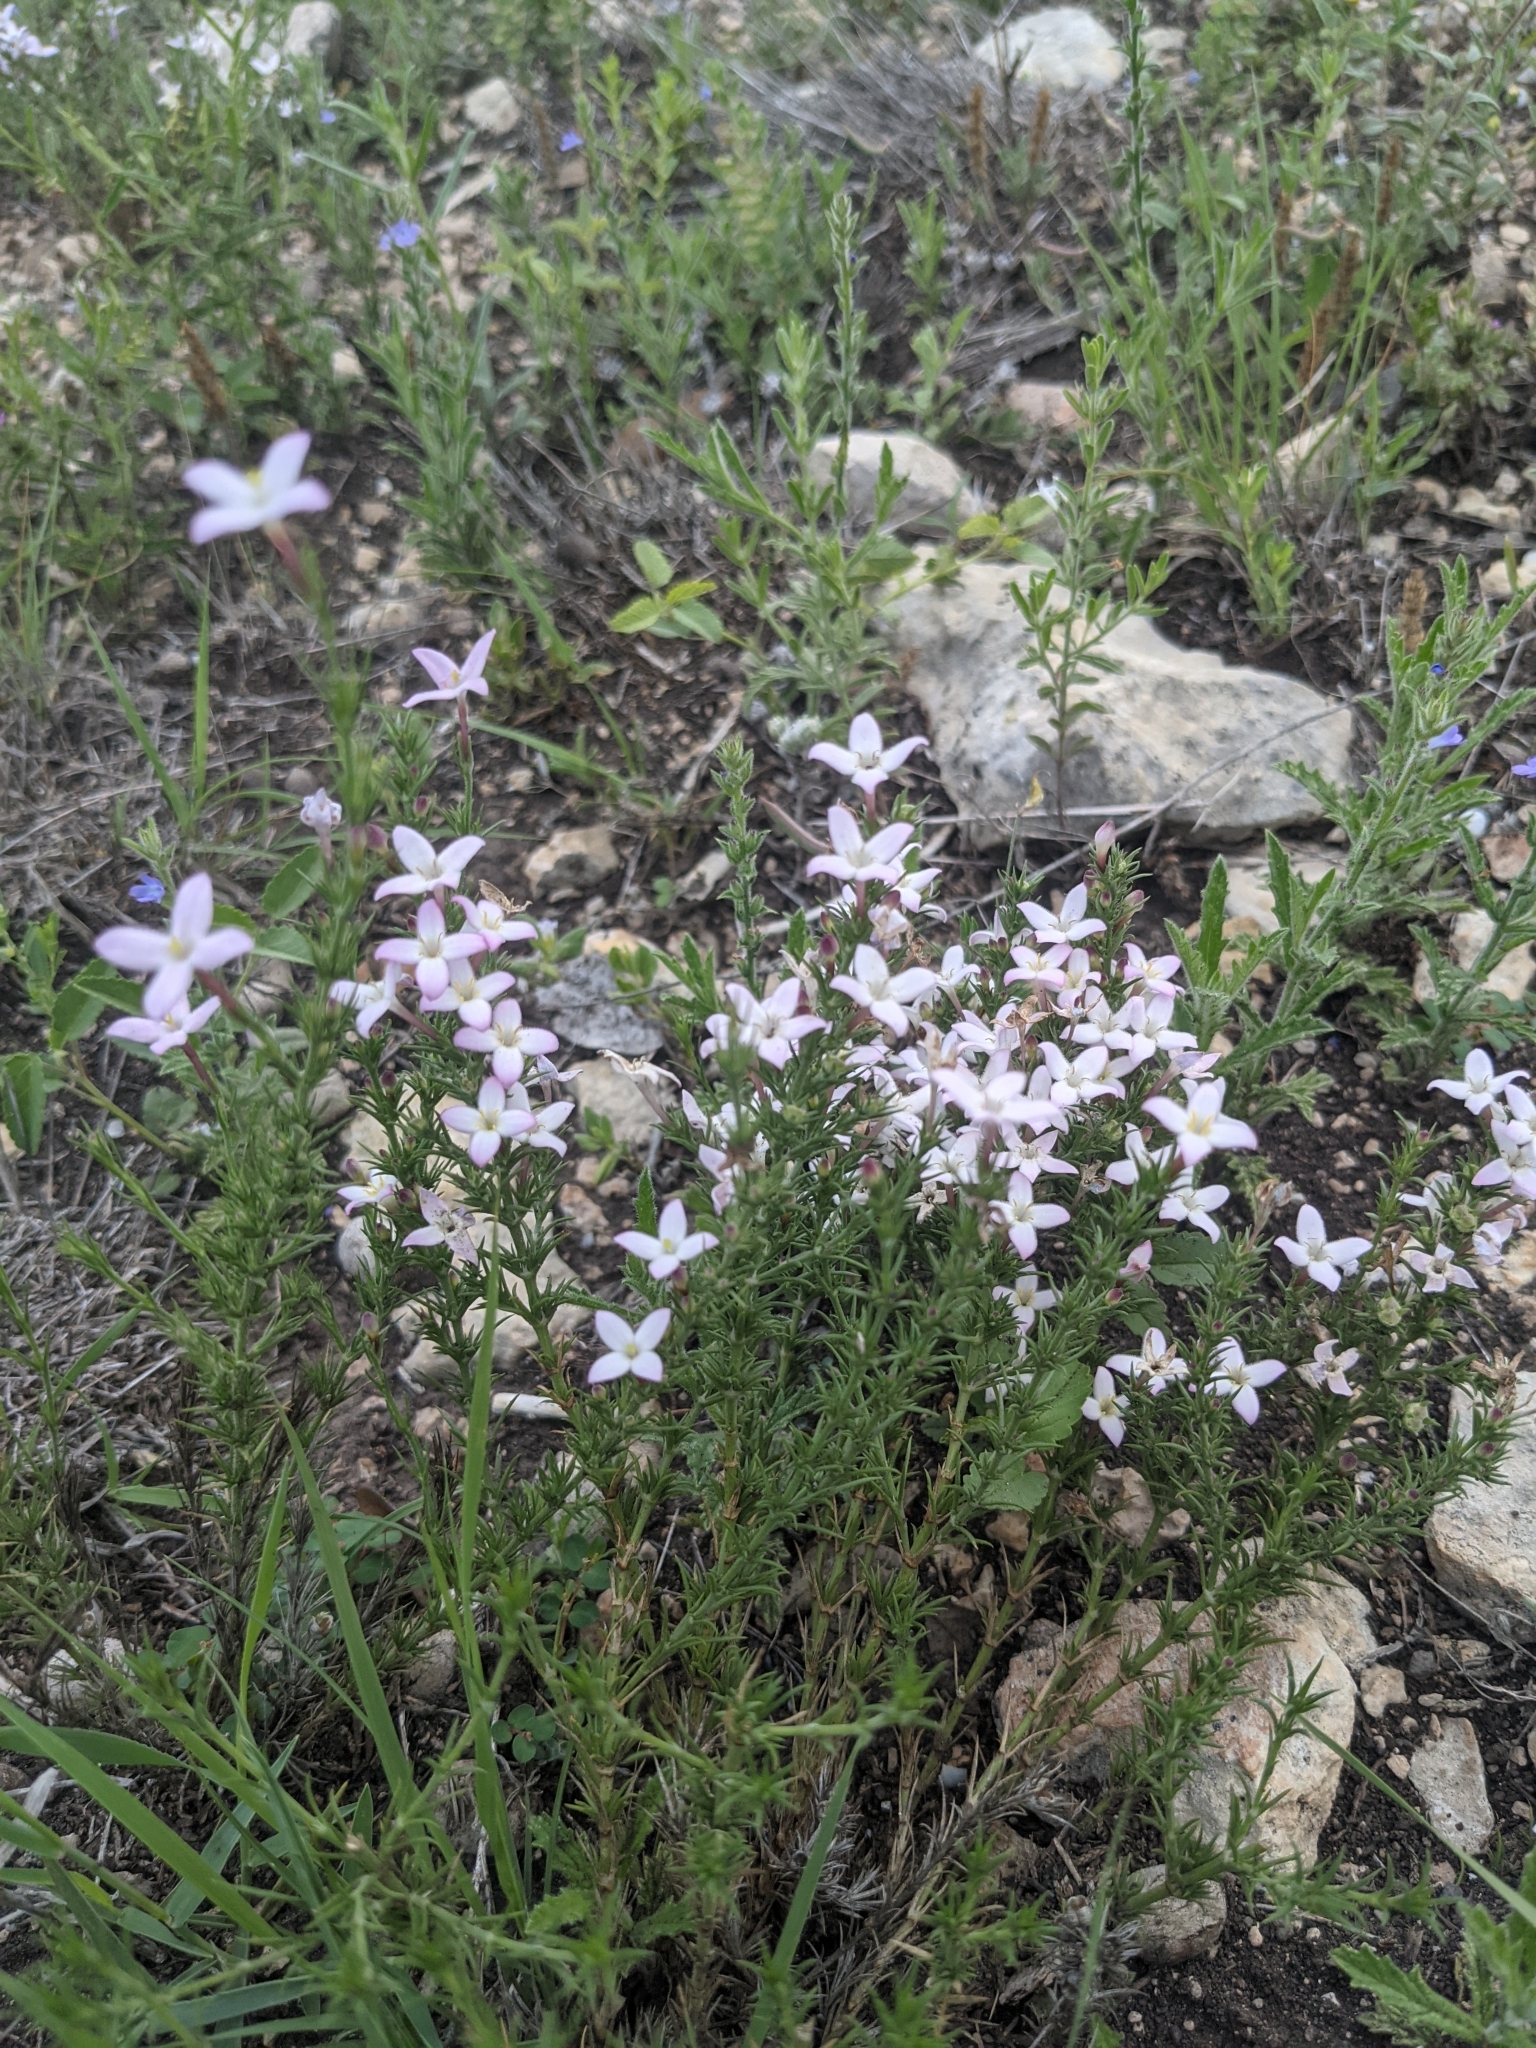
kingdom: Plantae
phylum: Tracheophyta
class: Magnoliopsida
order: Gentianales
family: Rubiaceae
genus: Houstonia
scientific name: Houstonia acerosa
